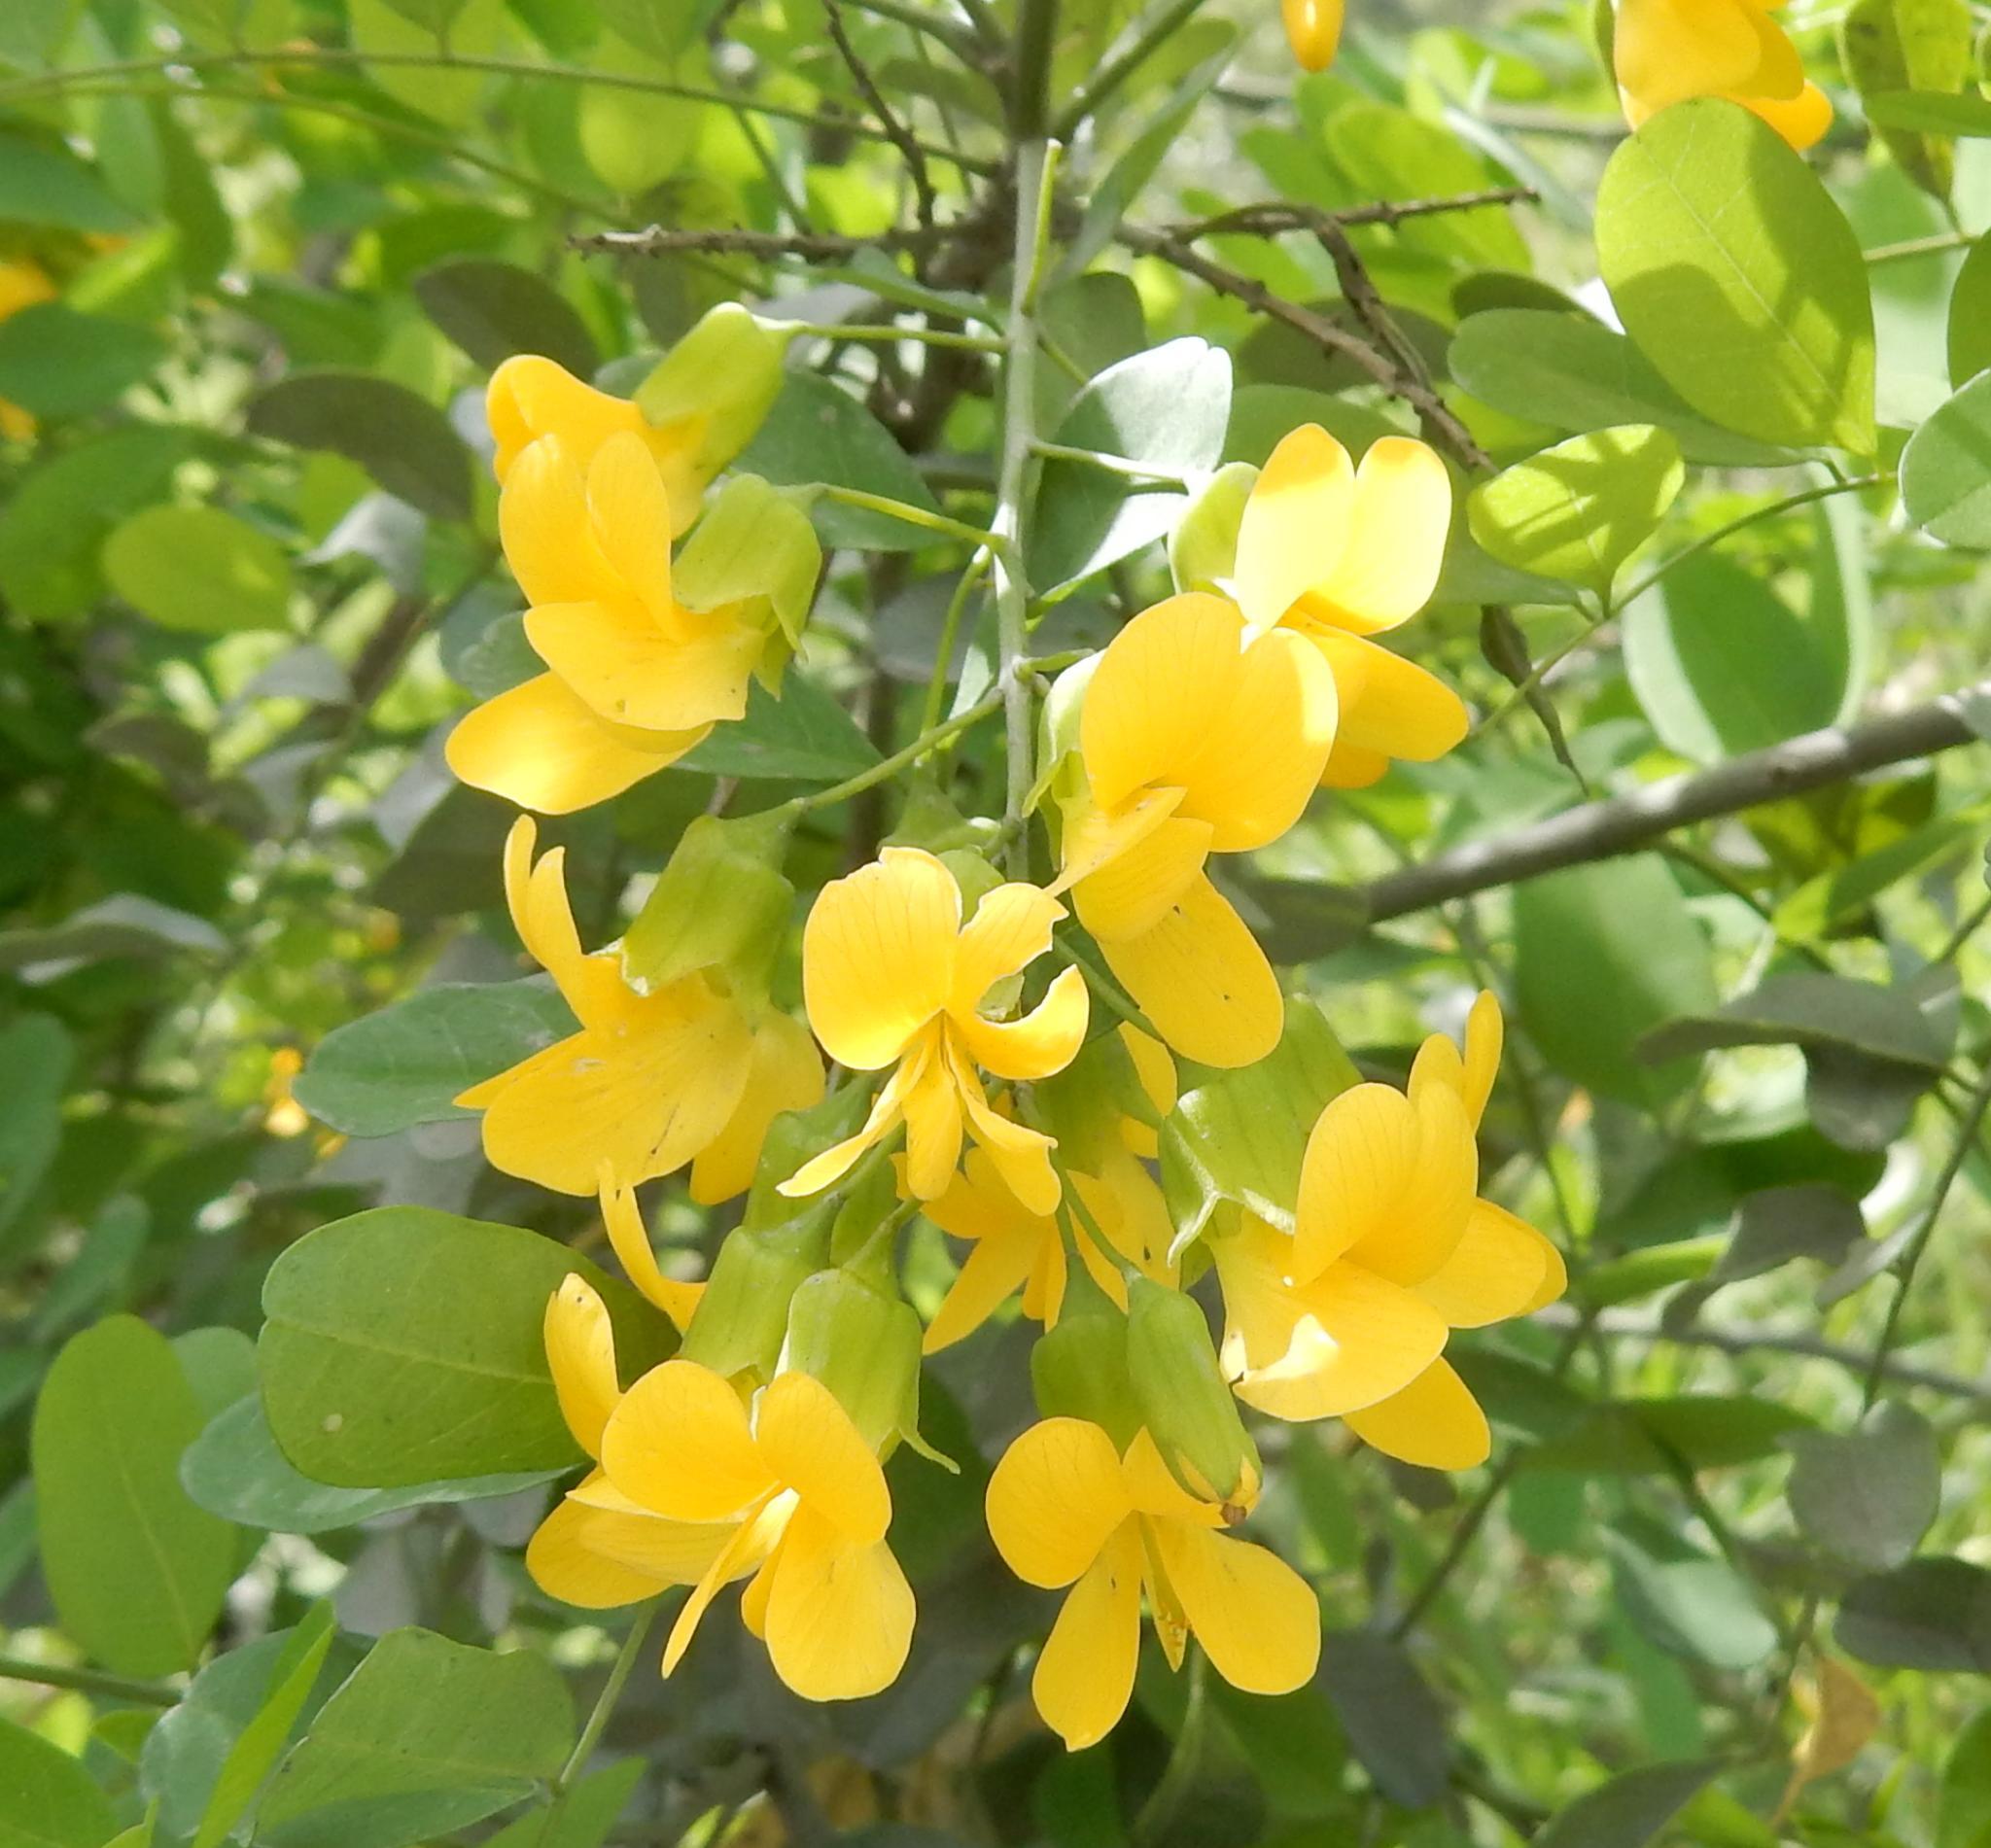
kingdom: Plantae
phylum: Tracheophyta
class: Magnoliopsida
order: Fabales
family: Fabaceae
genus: Calpurnia
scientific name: Calpurnia aurea
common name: Wild laburnum
